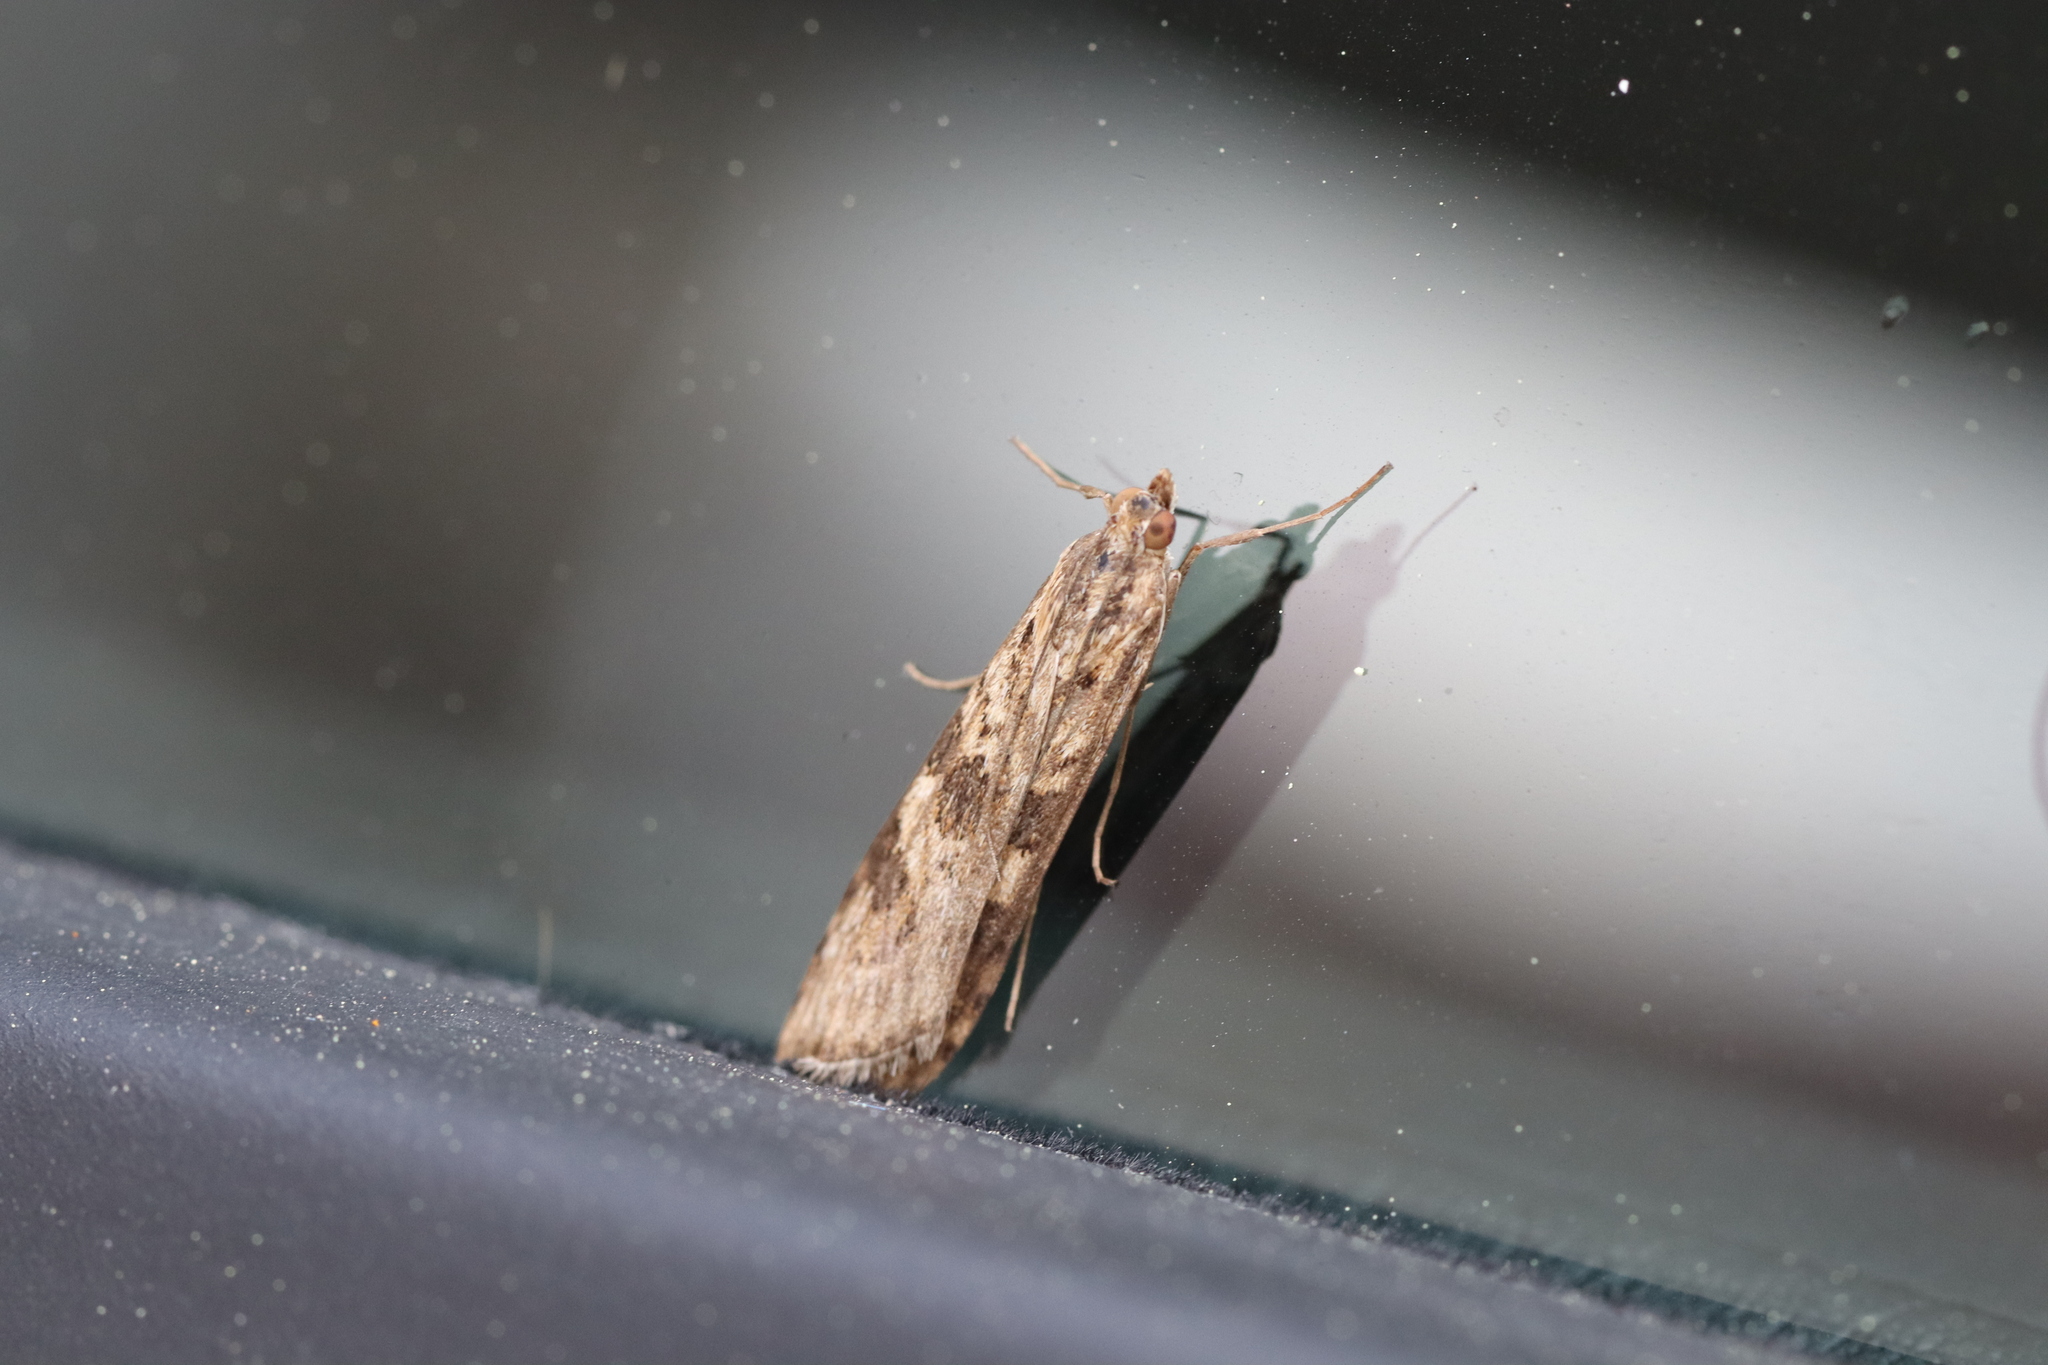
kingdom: Animalia
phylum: Arthropoda
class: Insecta
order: Lepidoptera
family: Crambidae
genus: Nomophila
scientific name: Nomophila noctuella
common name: Rush veneer
